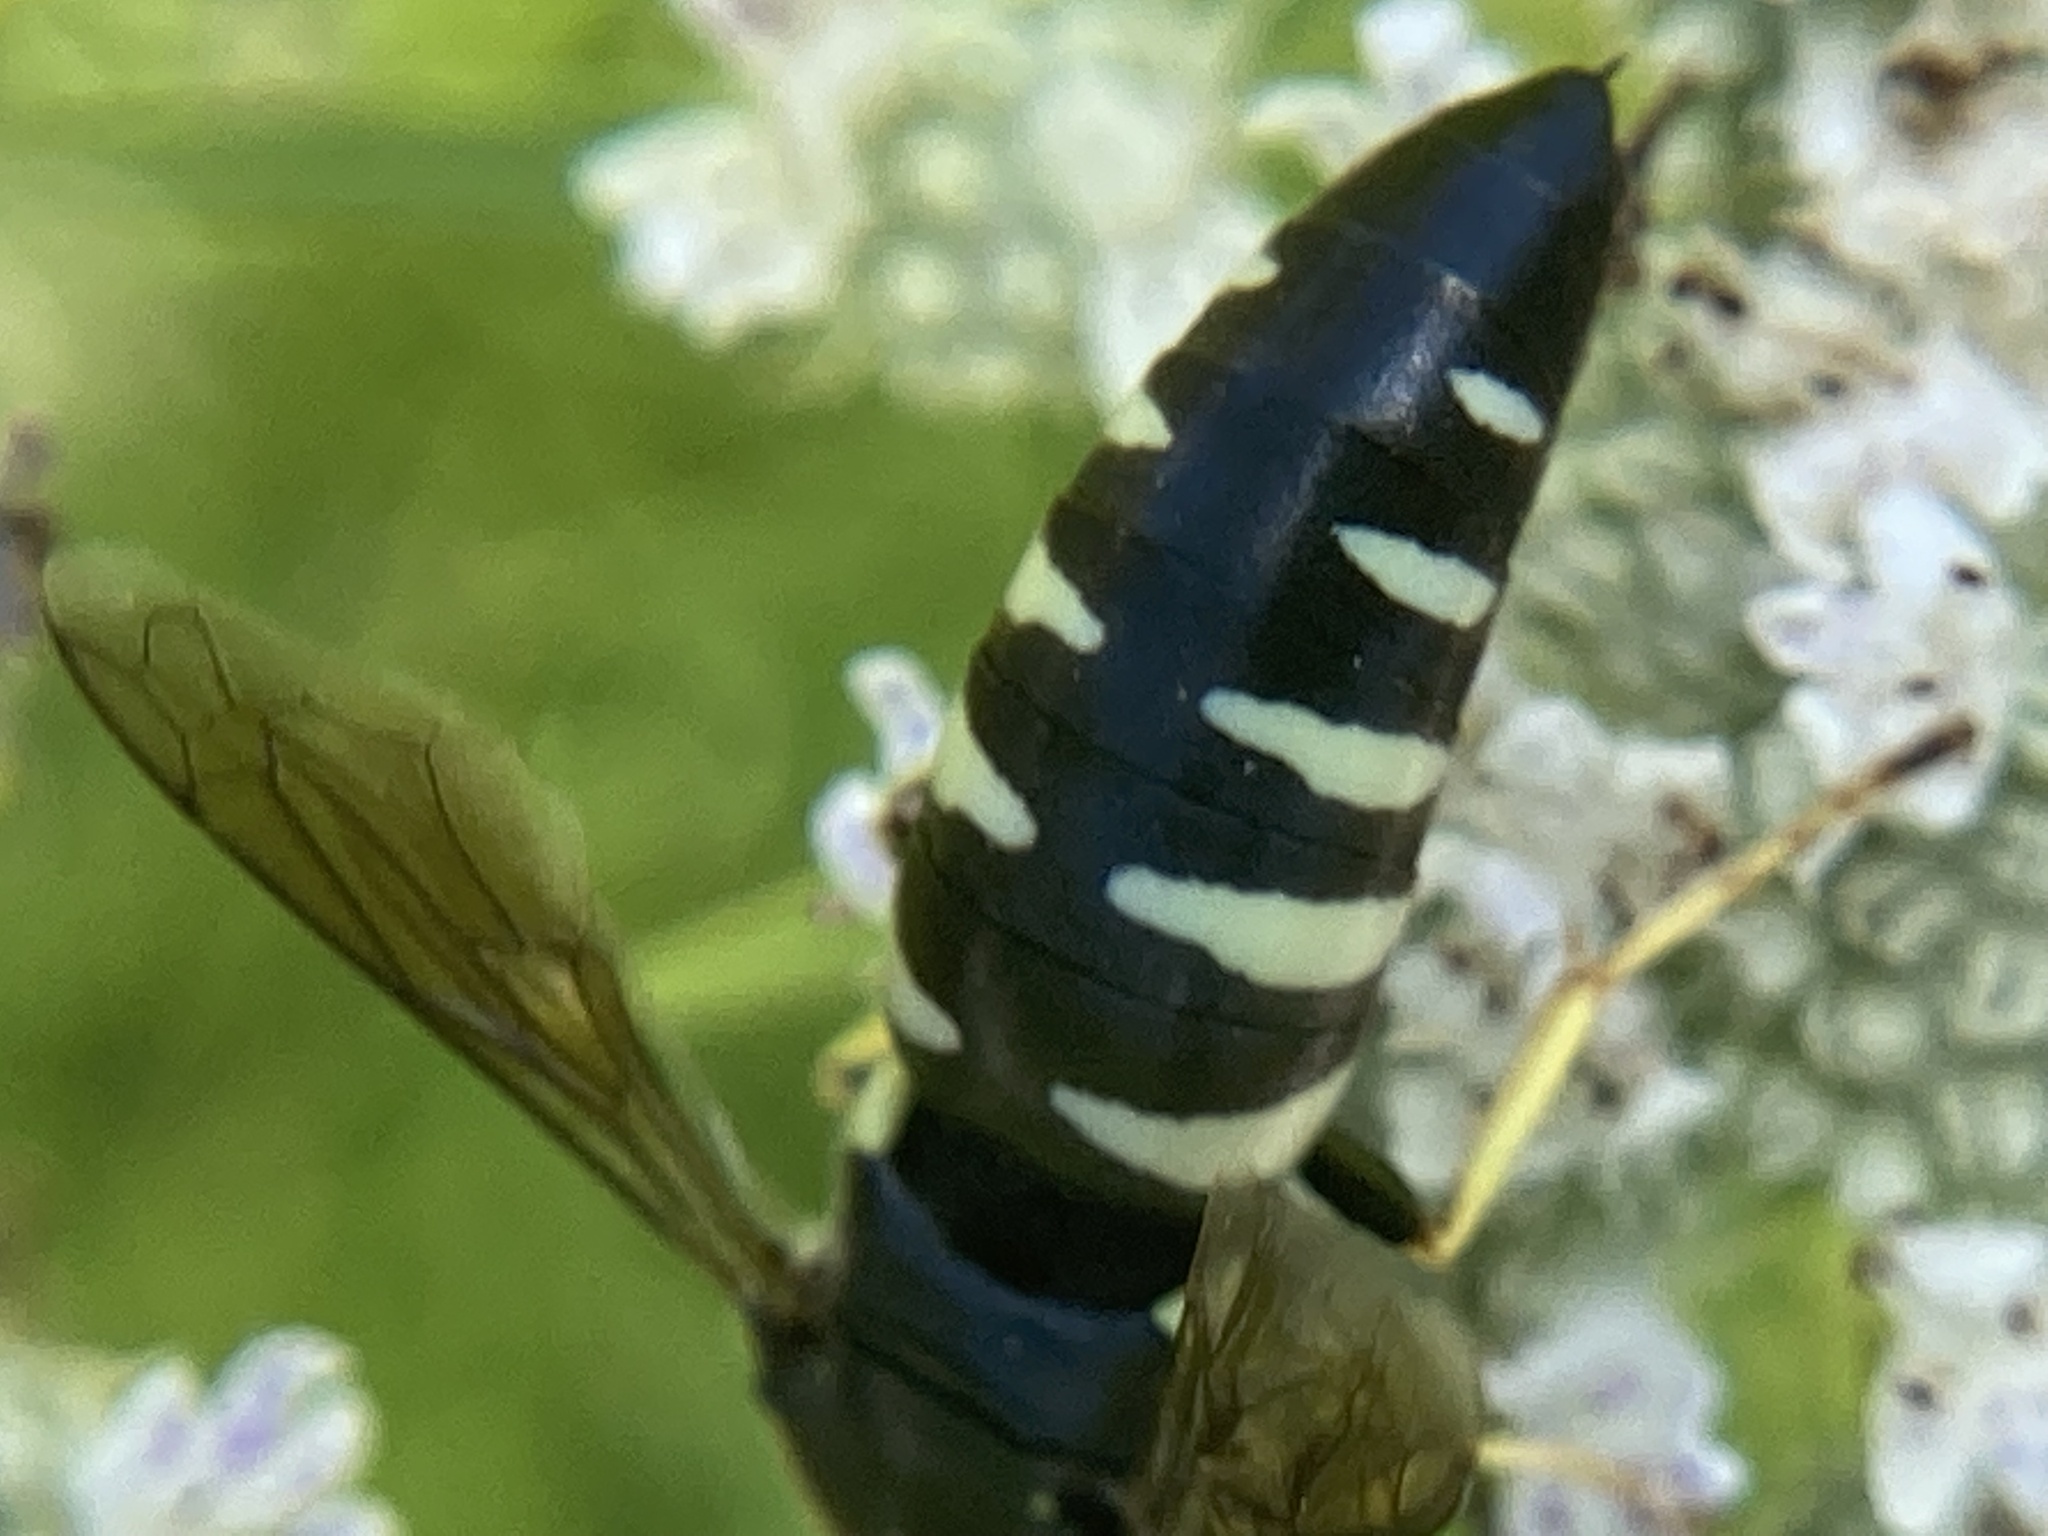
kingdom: Animalia
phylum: Arthropoda
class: Insecta
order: Hymenoptera
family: Crabronidae
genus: Bicyrtes
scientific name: Bicyrtes quadrifasciatus
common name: Four-banded stink bug hunter wasp
